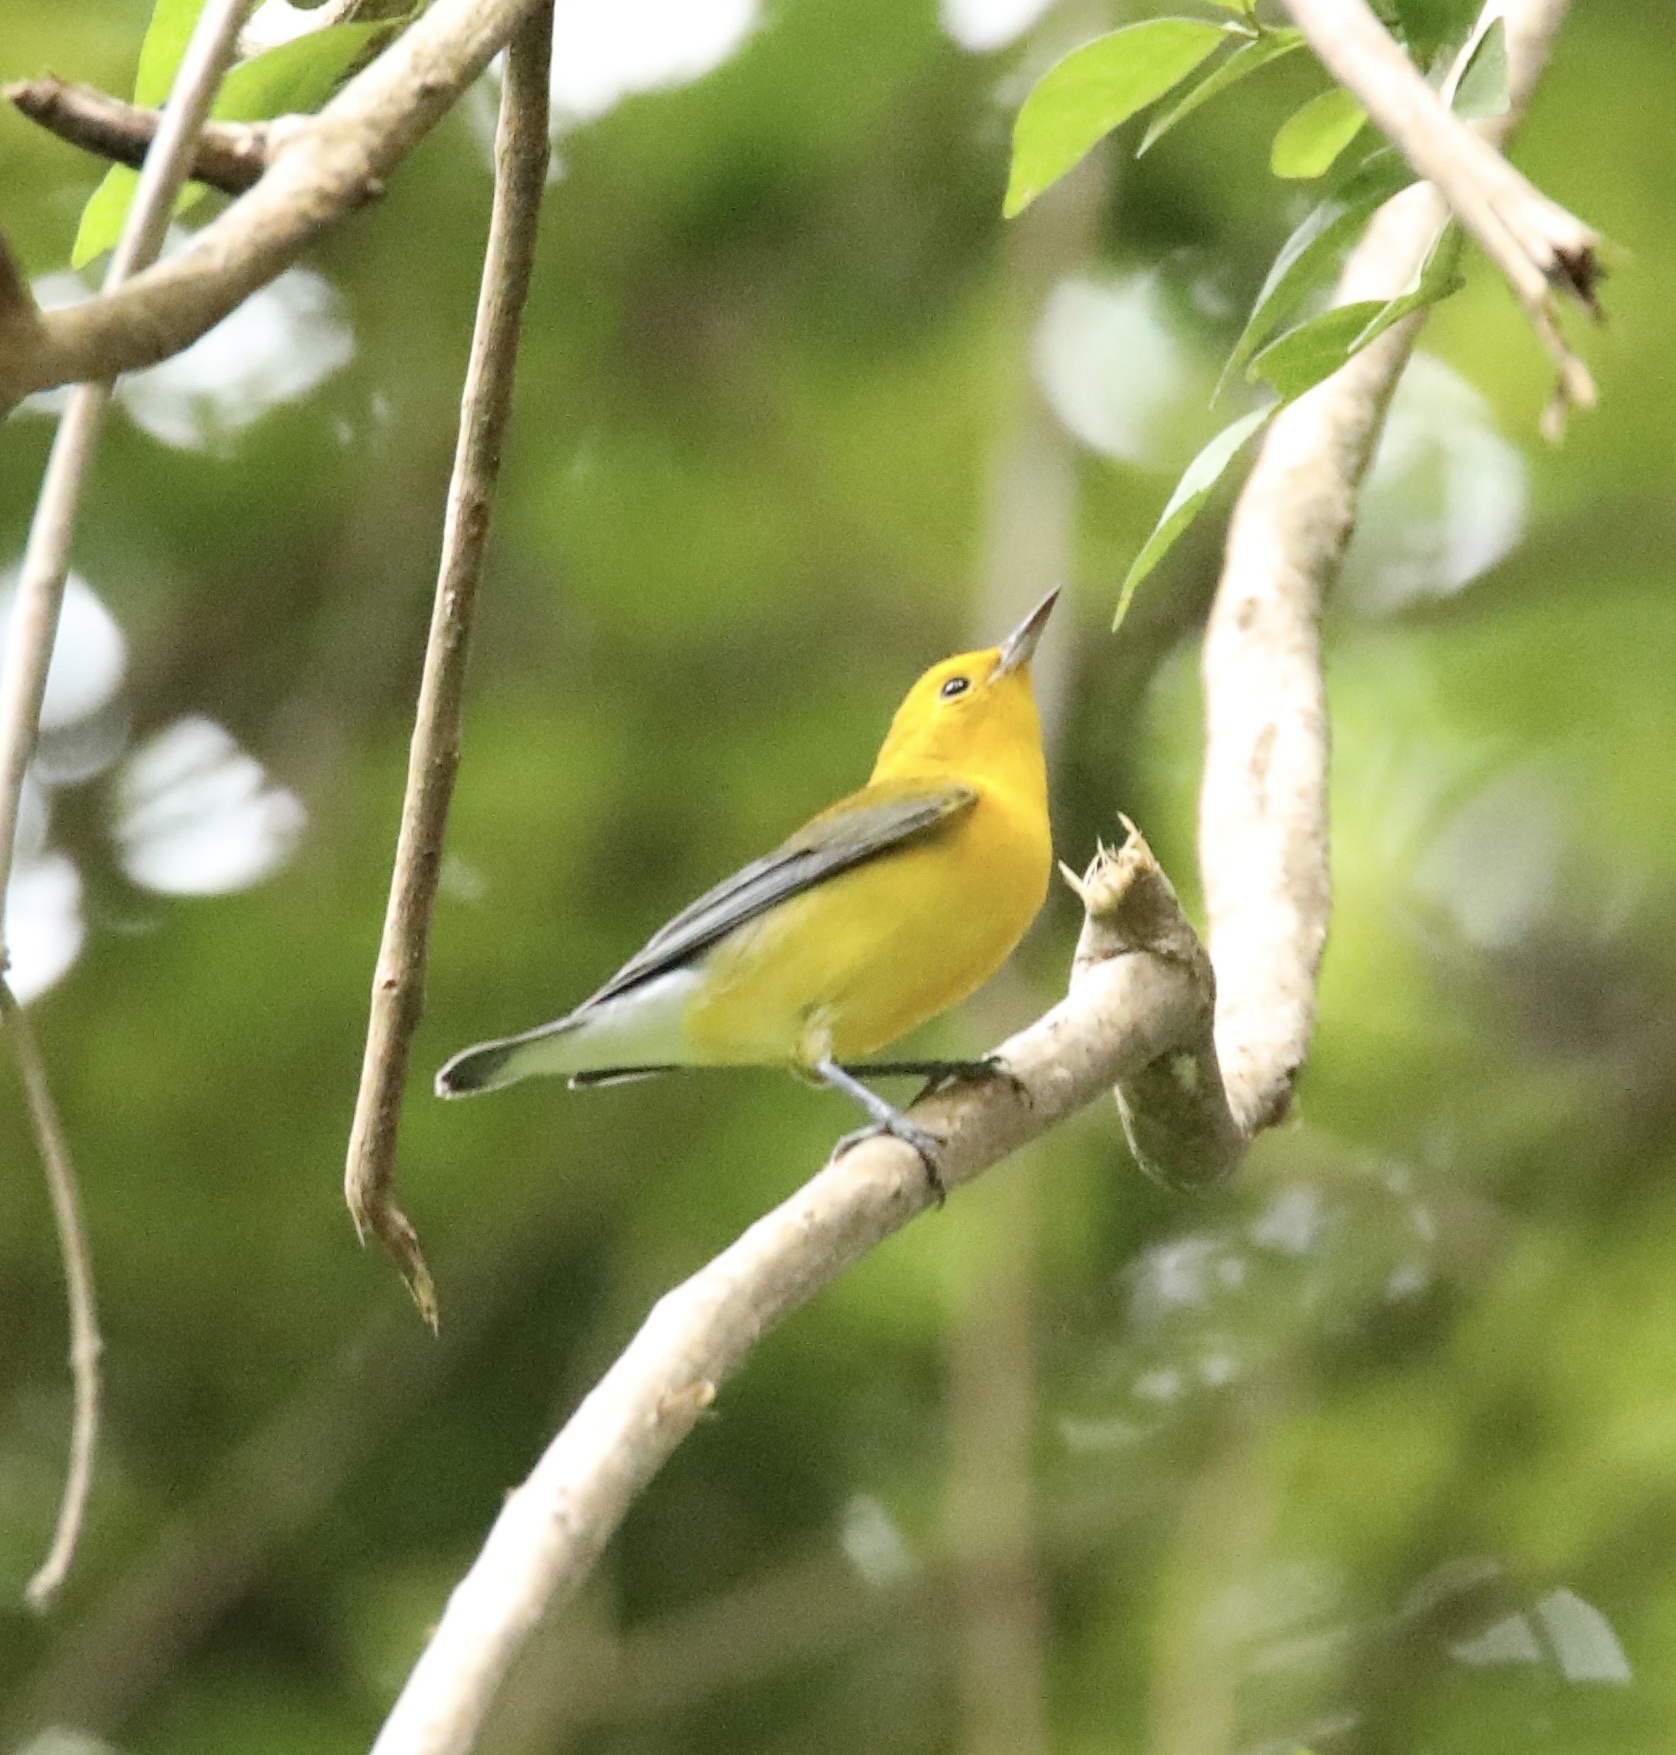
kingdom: Animalia
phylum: Chordata
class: Aves
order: Passeriformes
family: Parulidae
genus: Protonotaria
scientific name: Protonotaria citrea
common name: Prothonotary warbler
